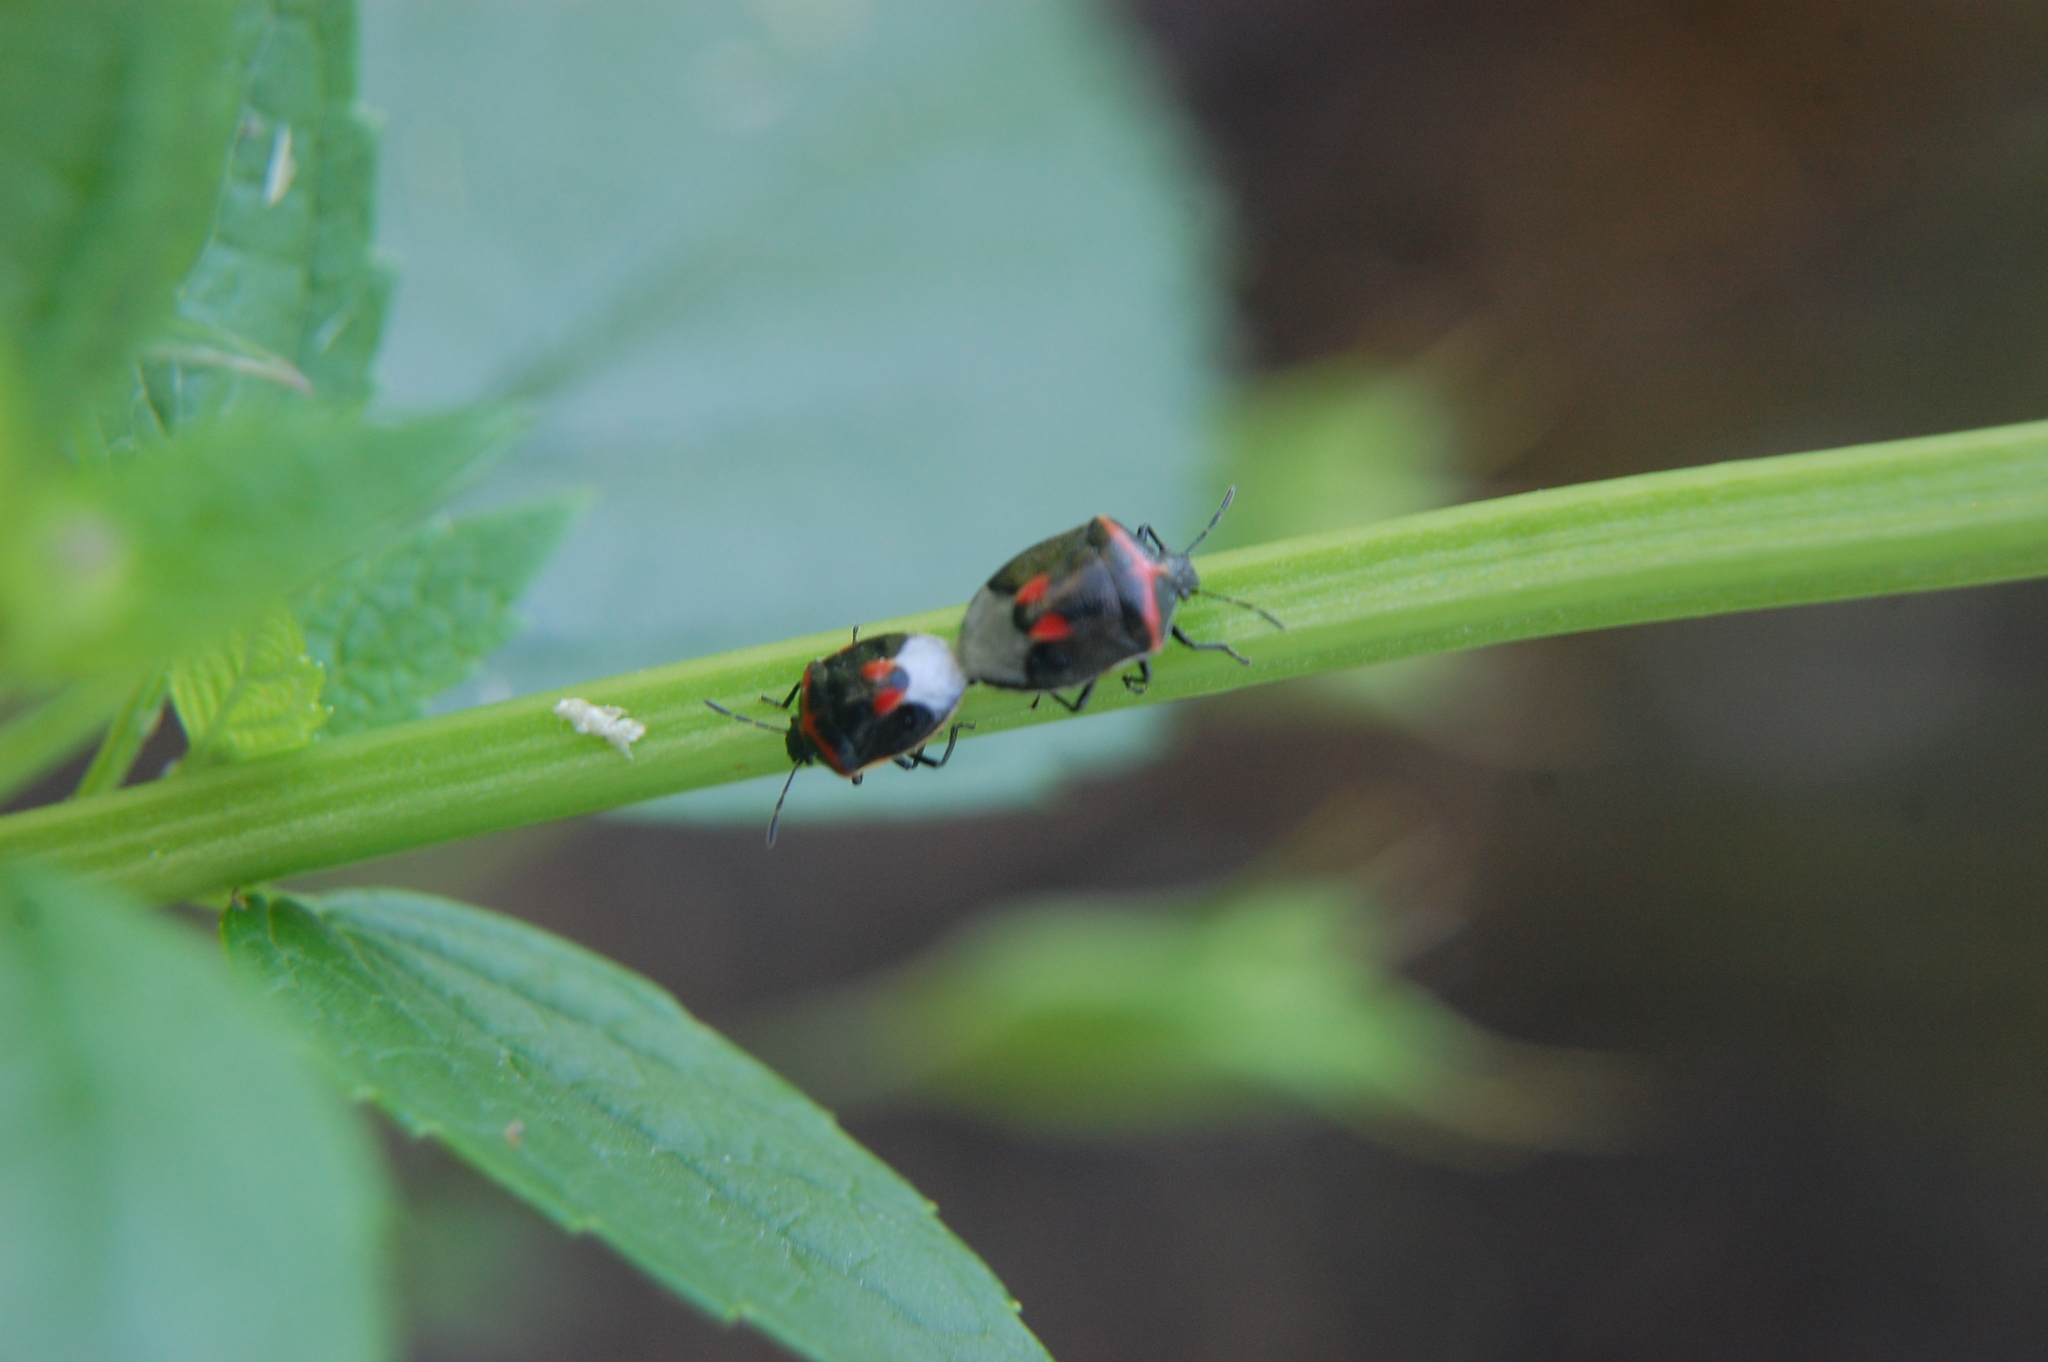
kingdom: Animalia
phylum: Arthropoda
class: Insecta
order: Hemiptera
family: Pentatomidae
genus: Cosmopepla
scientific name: Cosmopepla lintneriana
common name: Twice-stabbed stink bug
